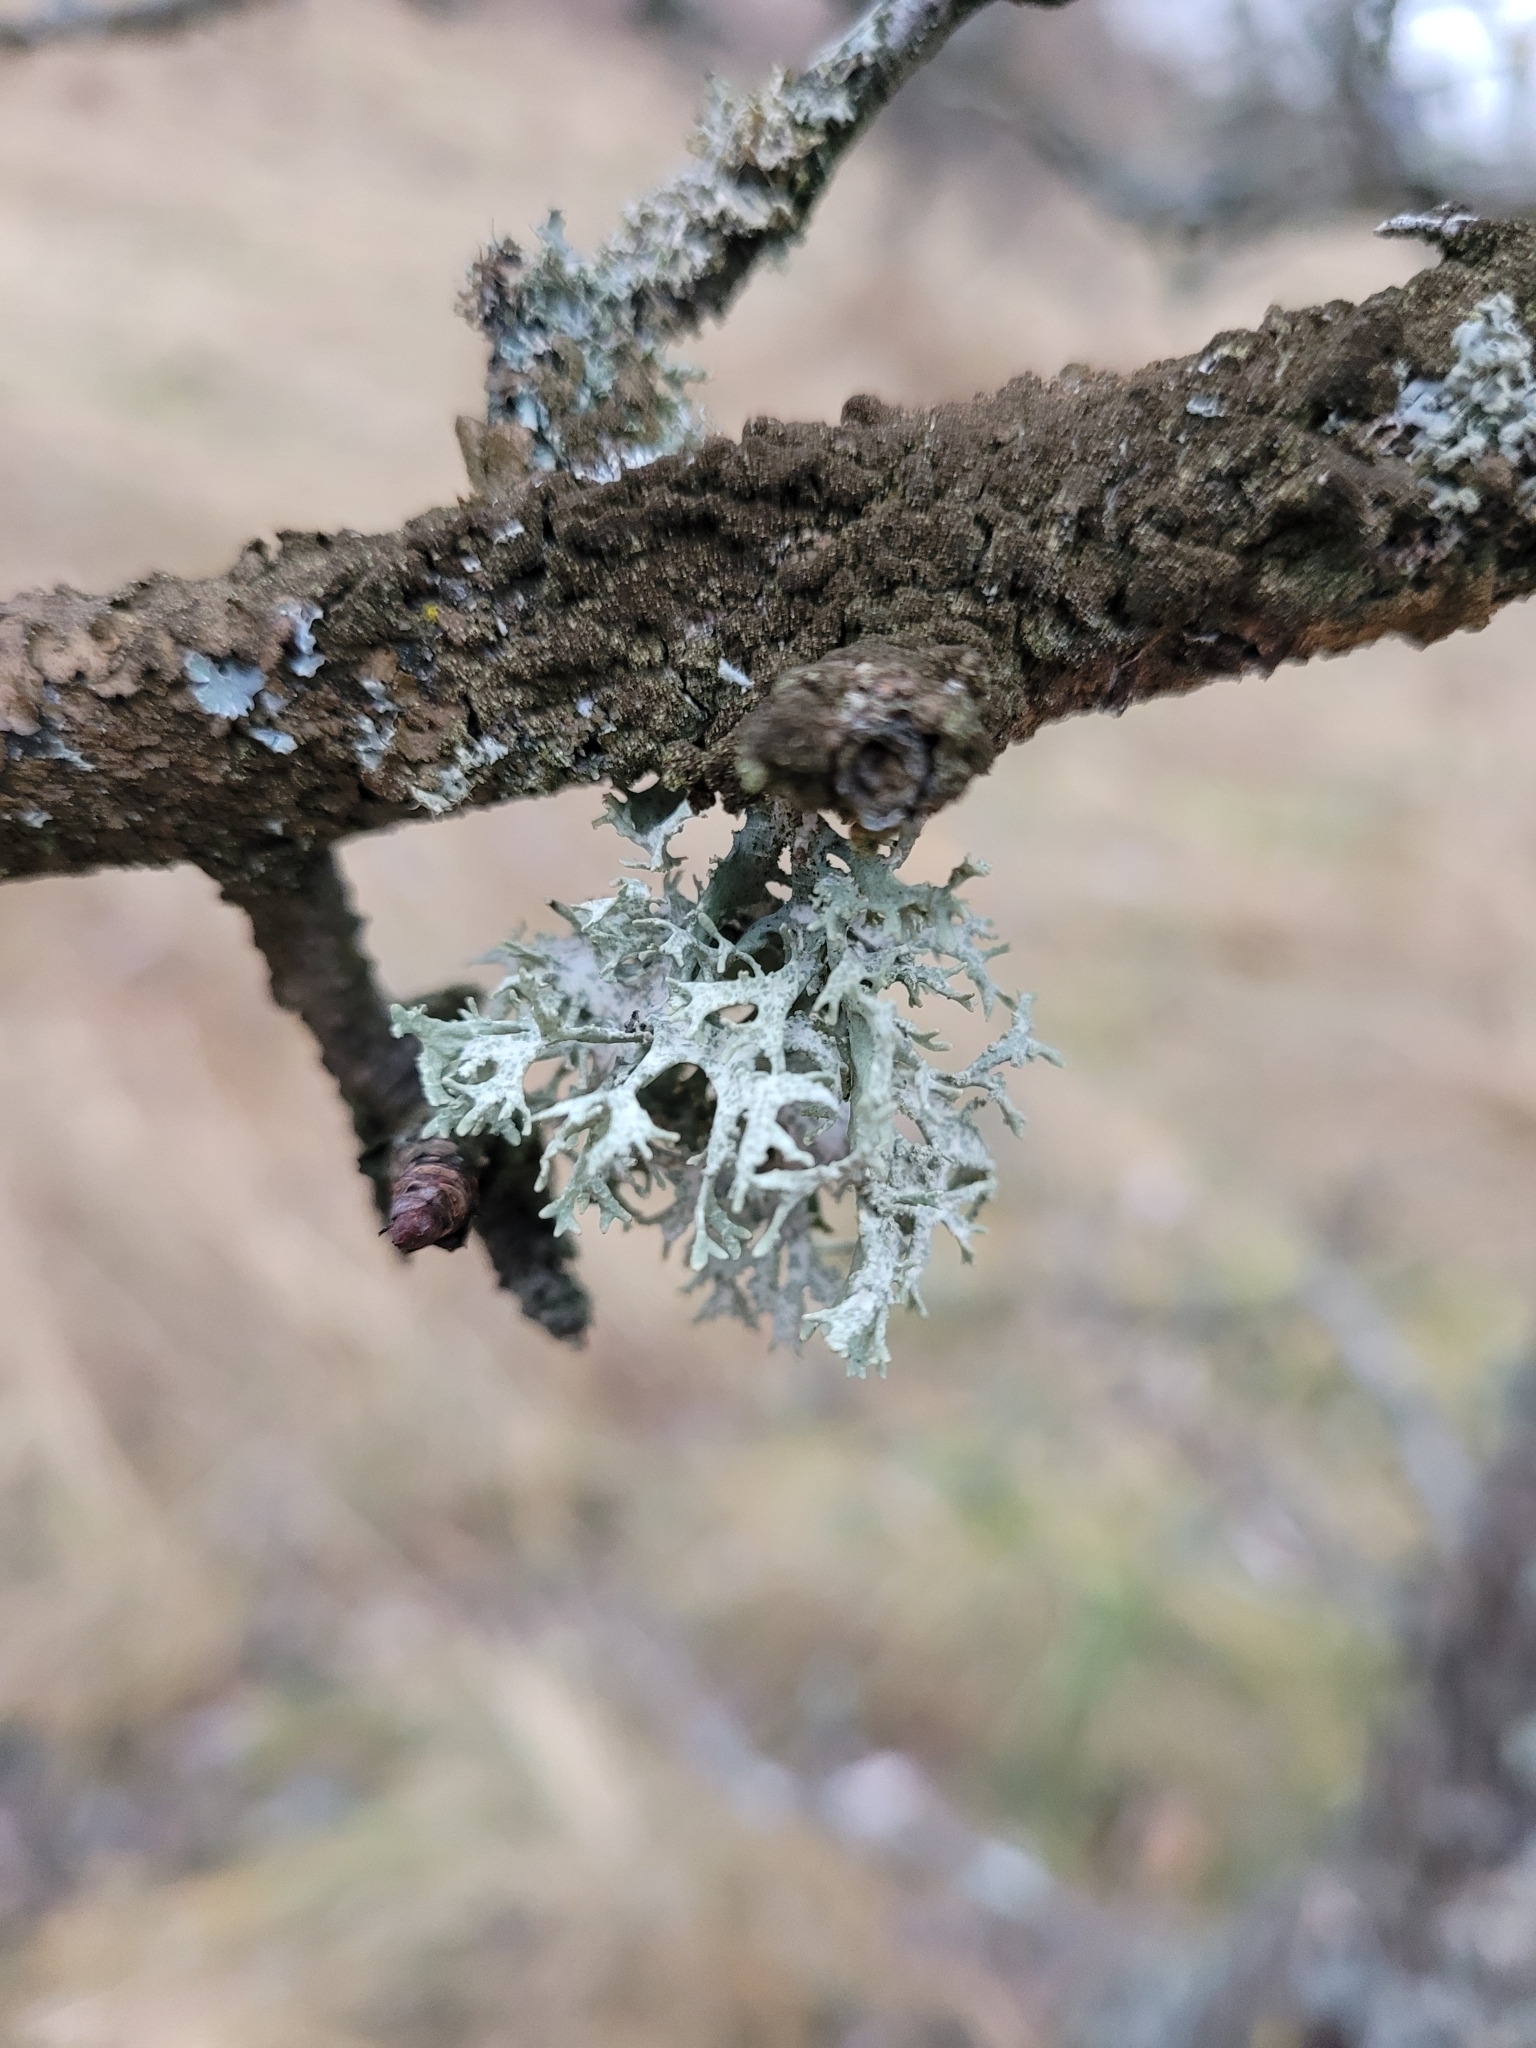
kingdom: Fungi
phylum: Ascomycota
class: Lecanoromycetes
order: Lecanorales
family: Parmeliaceae
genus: Evernia
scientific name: Evernia prunastri
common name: Oak moss
